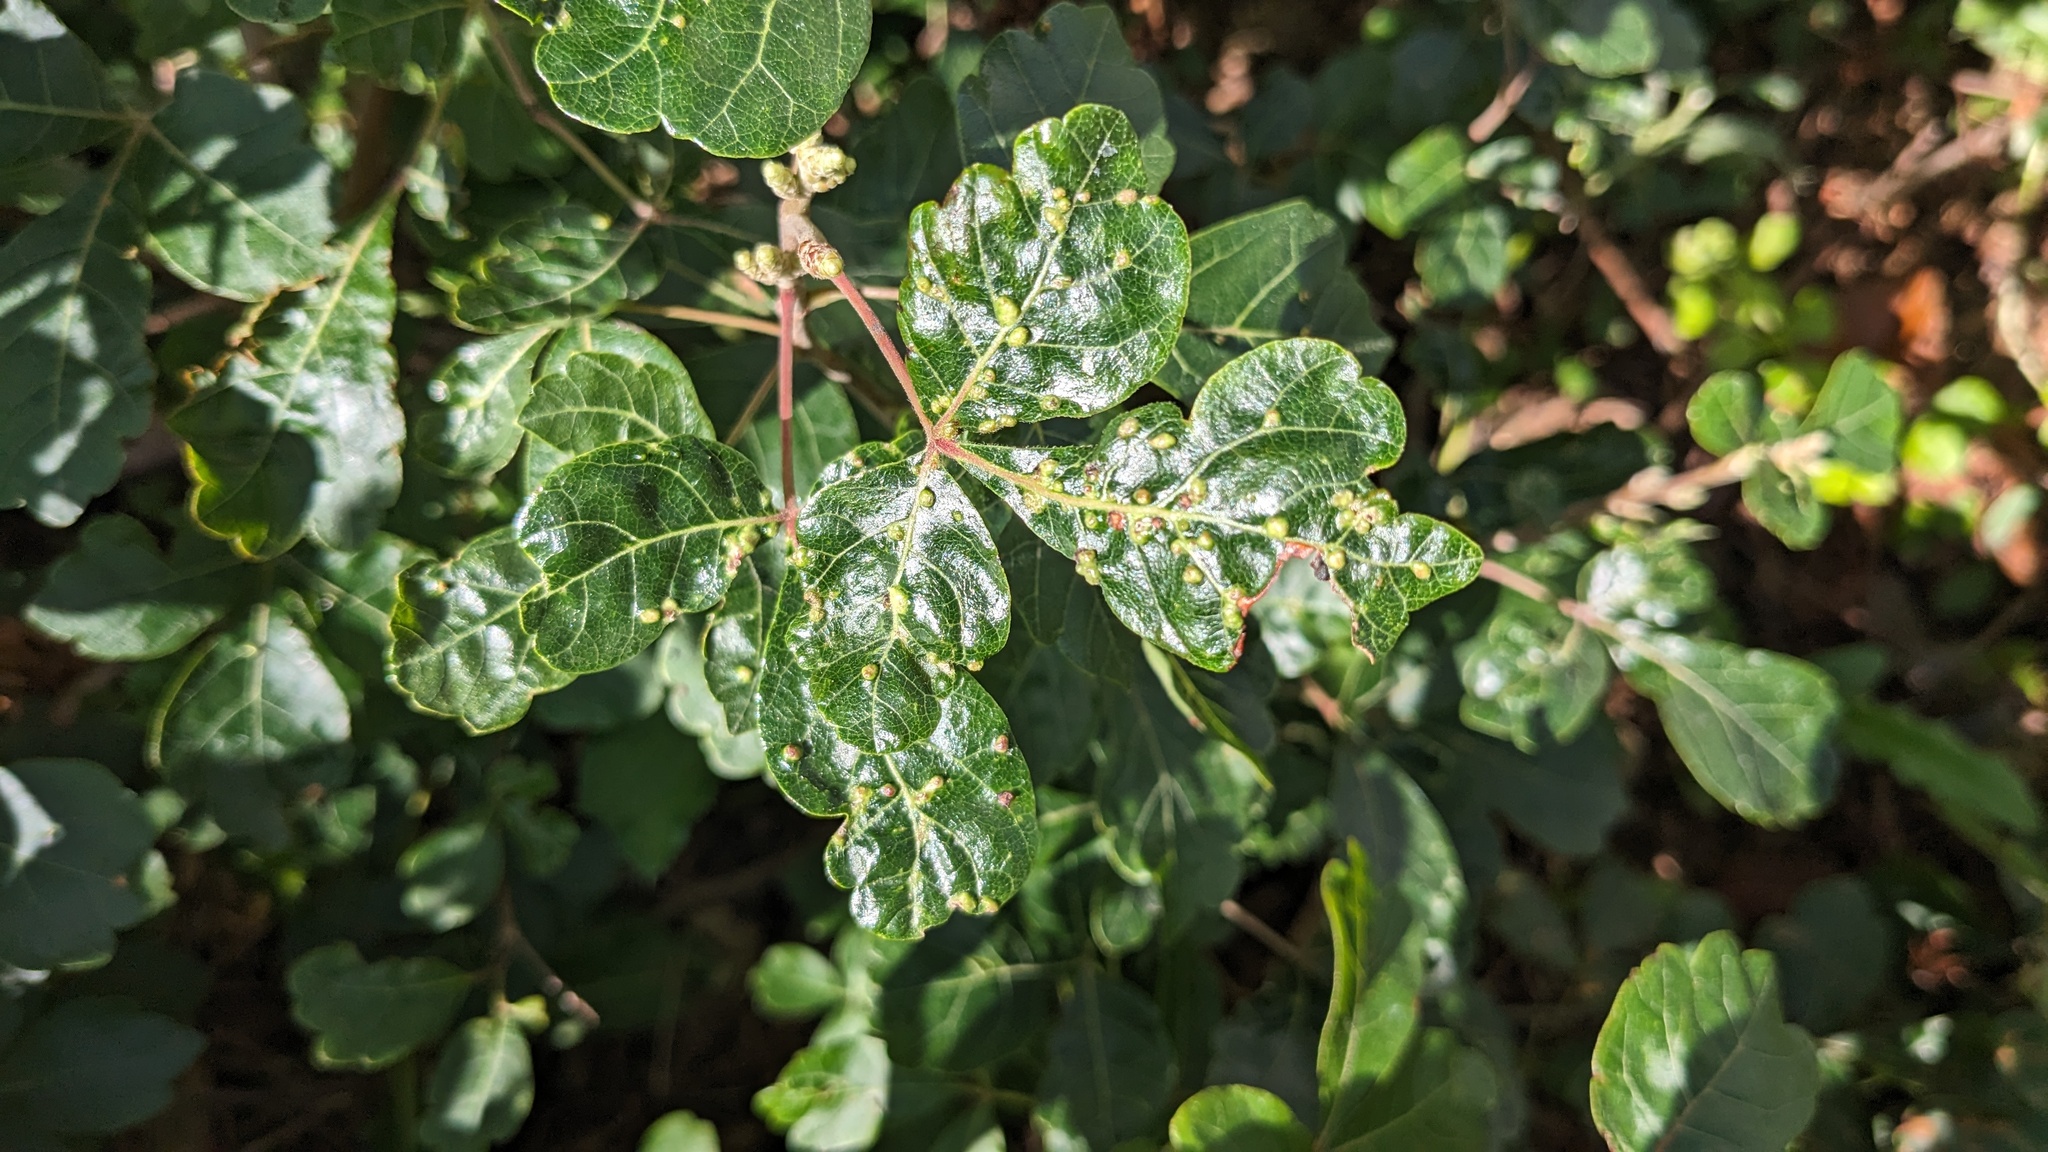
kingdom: Animalia
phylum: Arthropoda
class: Arachnida
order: Trombidiformes
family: Eriophyidae
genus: Aculops
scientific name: Aculops
